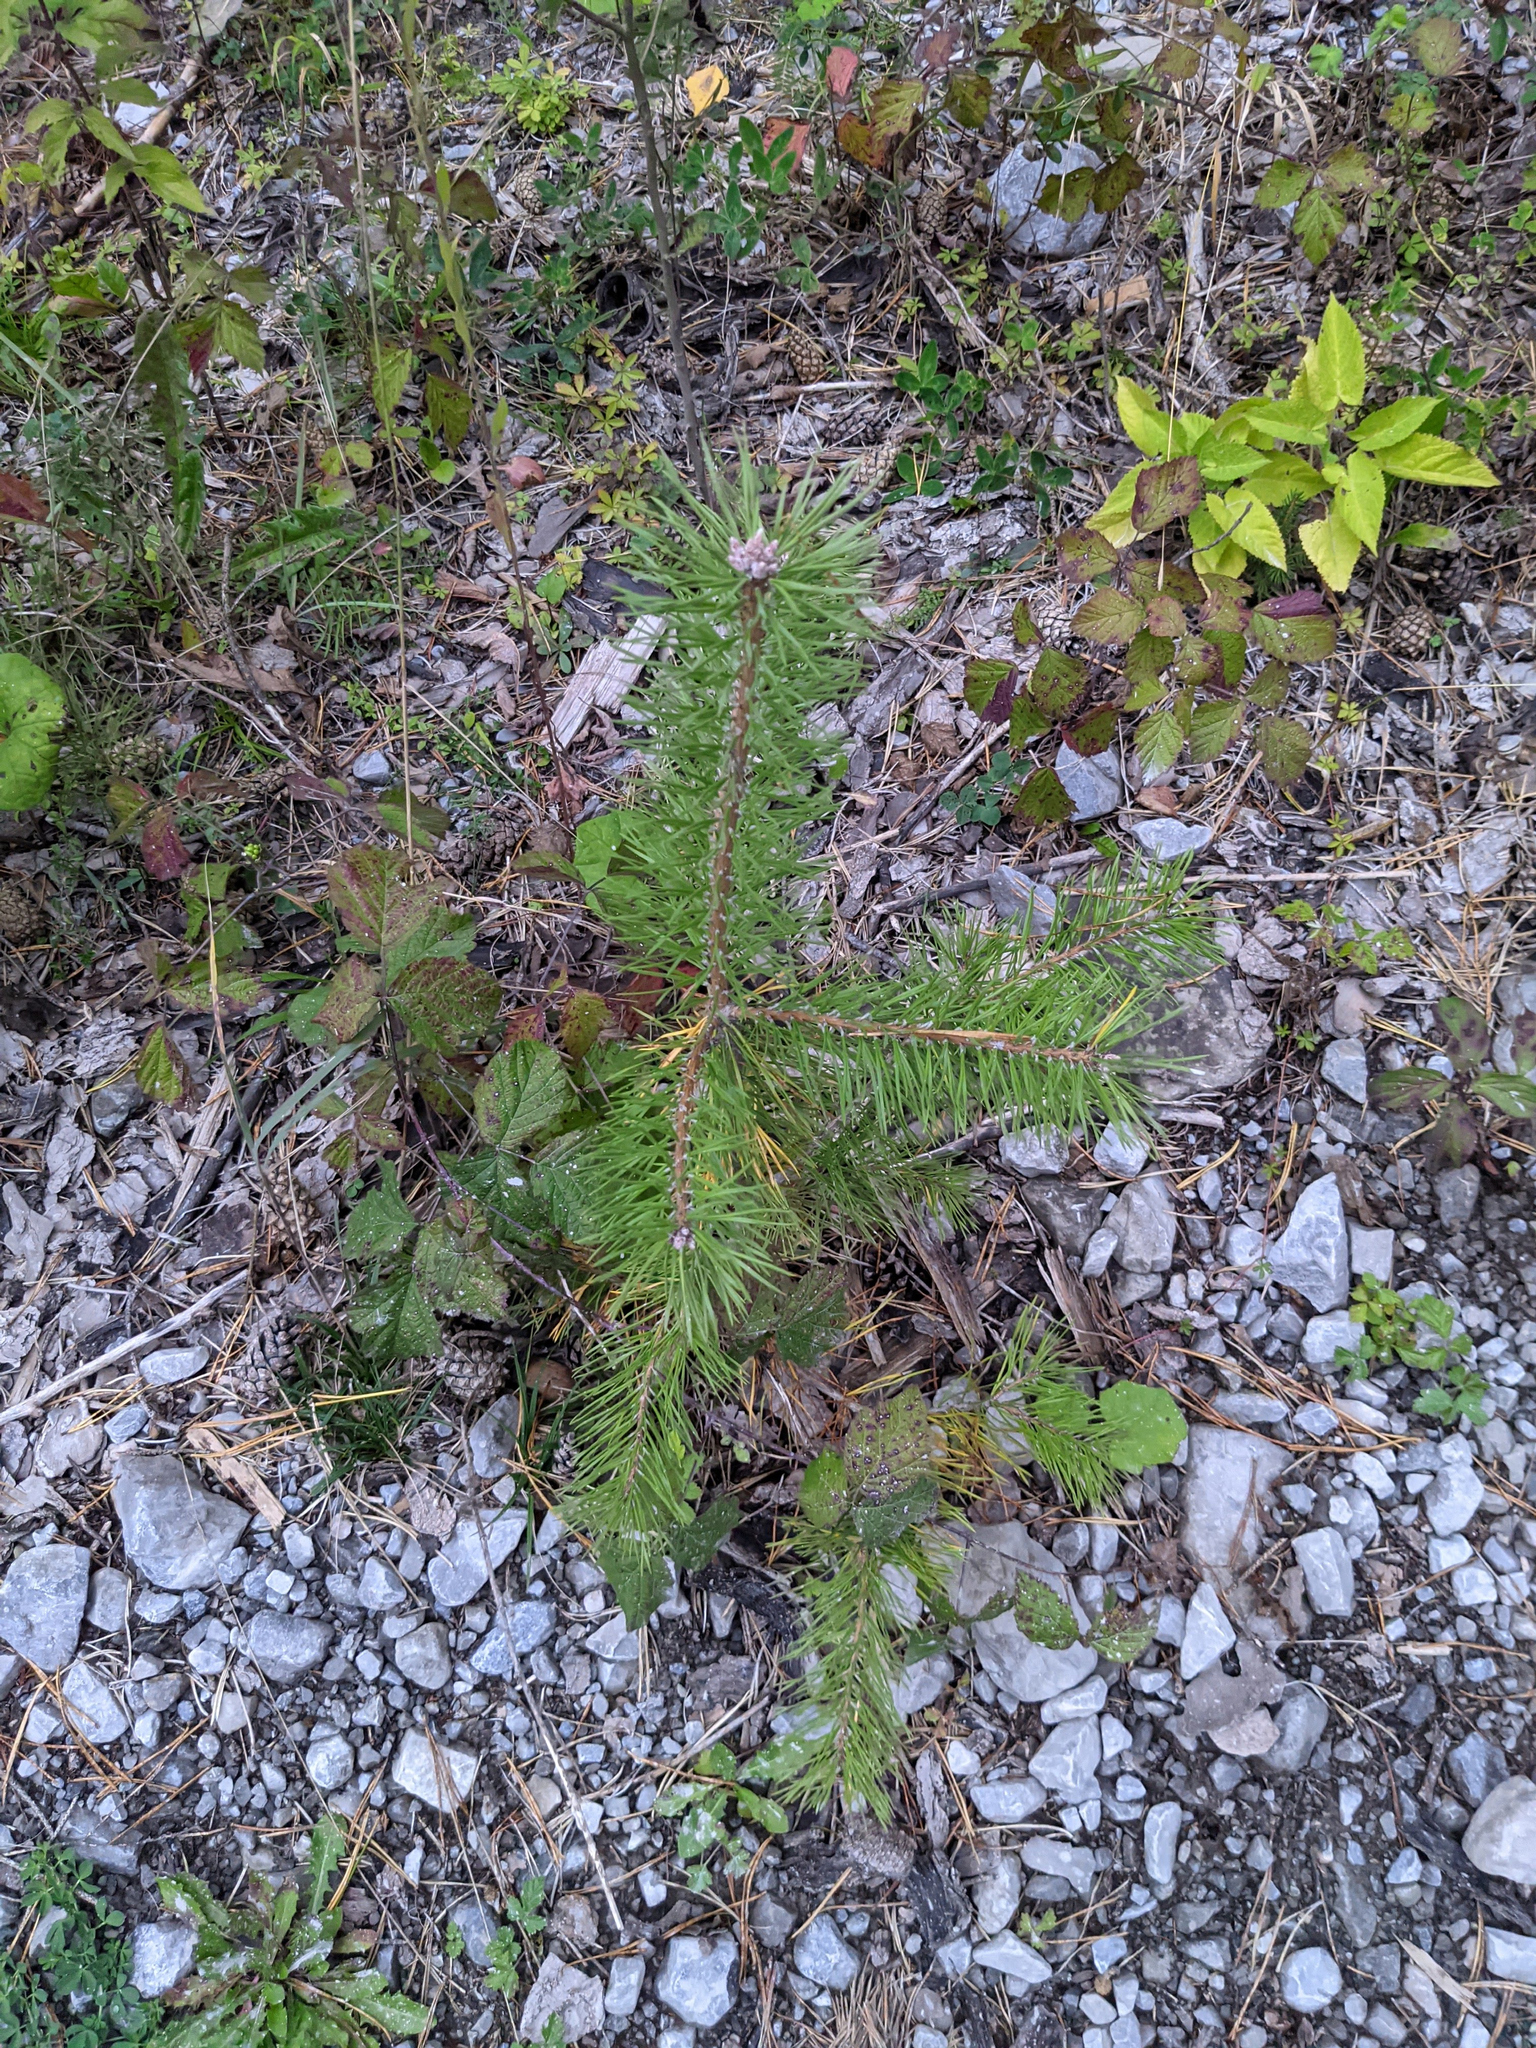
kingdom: Plantae
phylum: Tracheophyta
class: Pinopsida
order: Pinales
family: Pinaceae
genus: Pinus
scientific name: Pinus sylvestris
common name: Scots pine
